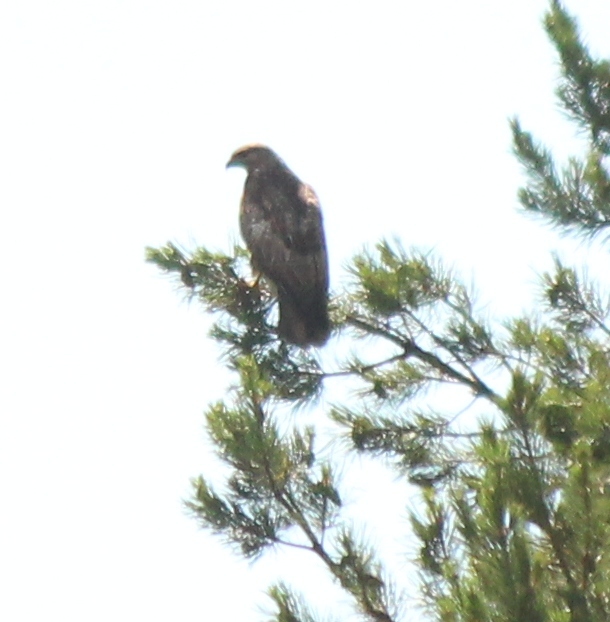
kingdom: Animalia
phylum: Chordata
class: Aves
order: Accipitriformes
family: Accipitridae
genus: Buteo
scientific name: Buteo japonicus
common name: Eastern buzzard
